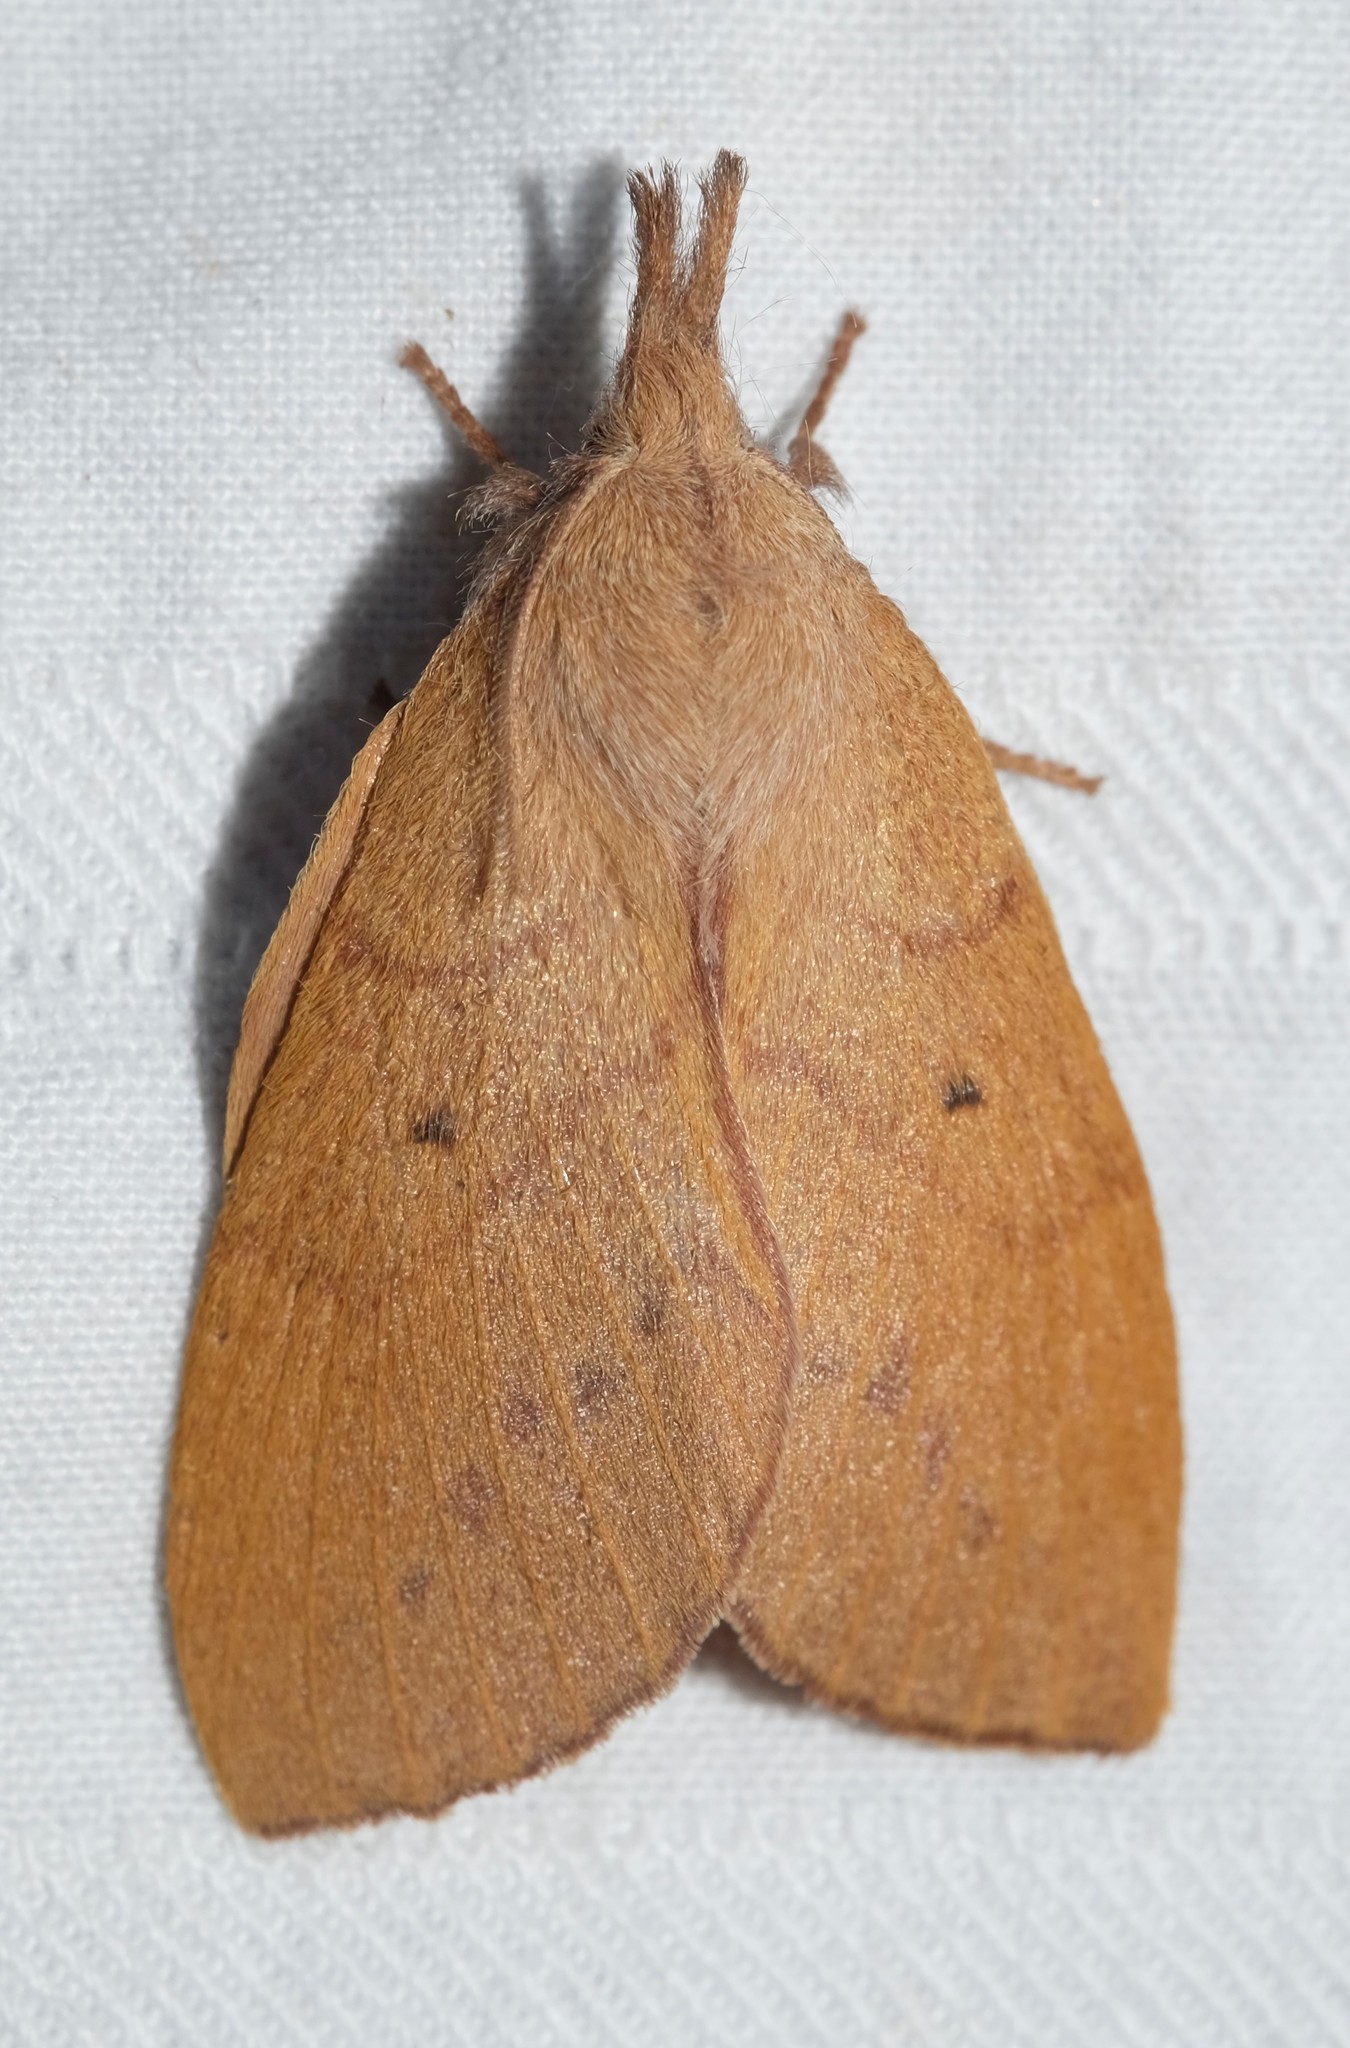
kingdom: Animalia
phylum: Arthropoda
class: Insecta
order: Lepidoptera
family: Lasiocampidae
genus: Pararguda
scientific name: Pararguda nasuta
